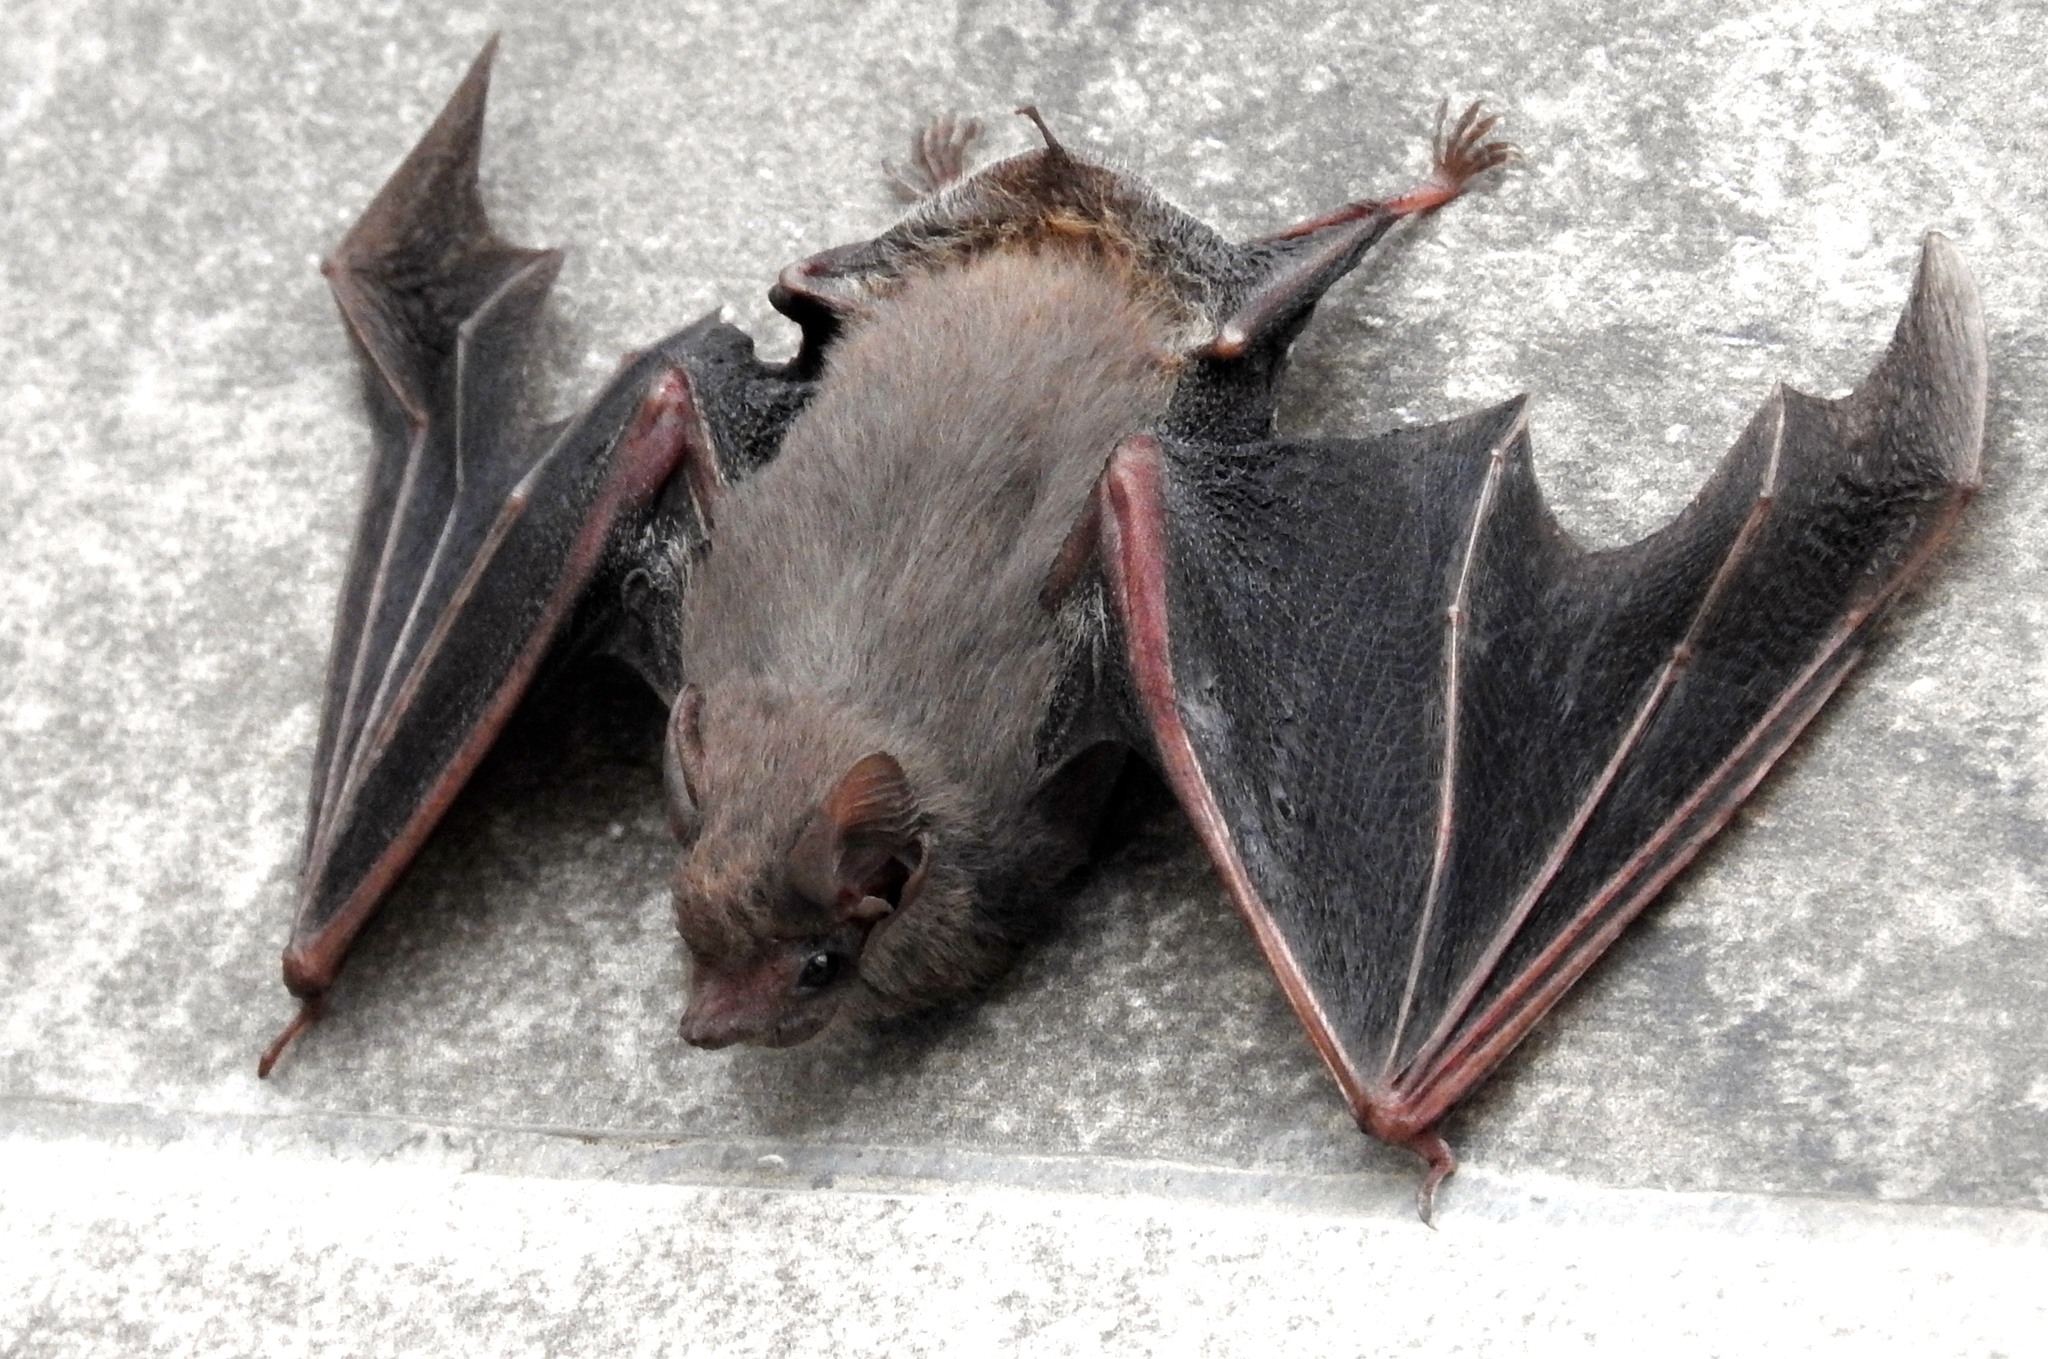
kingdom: Animalia
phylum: Chordata
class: Mammalia
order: Chiroptera
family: Emballonuridae
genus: Balantiopteryx
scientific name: Balantiopteryx plicata
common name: Gray sac-winged bat
